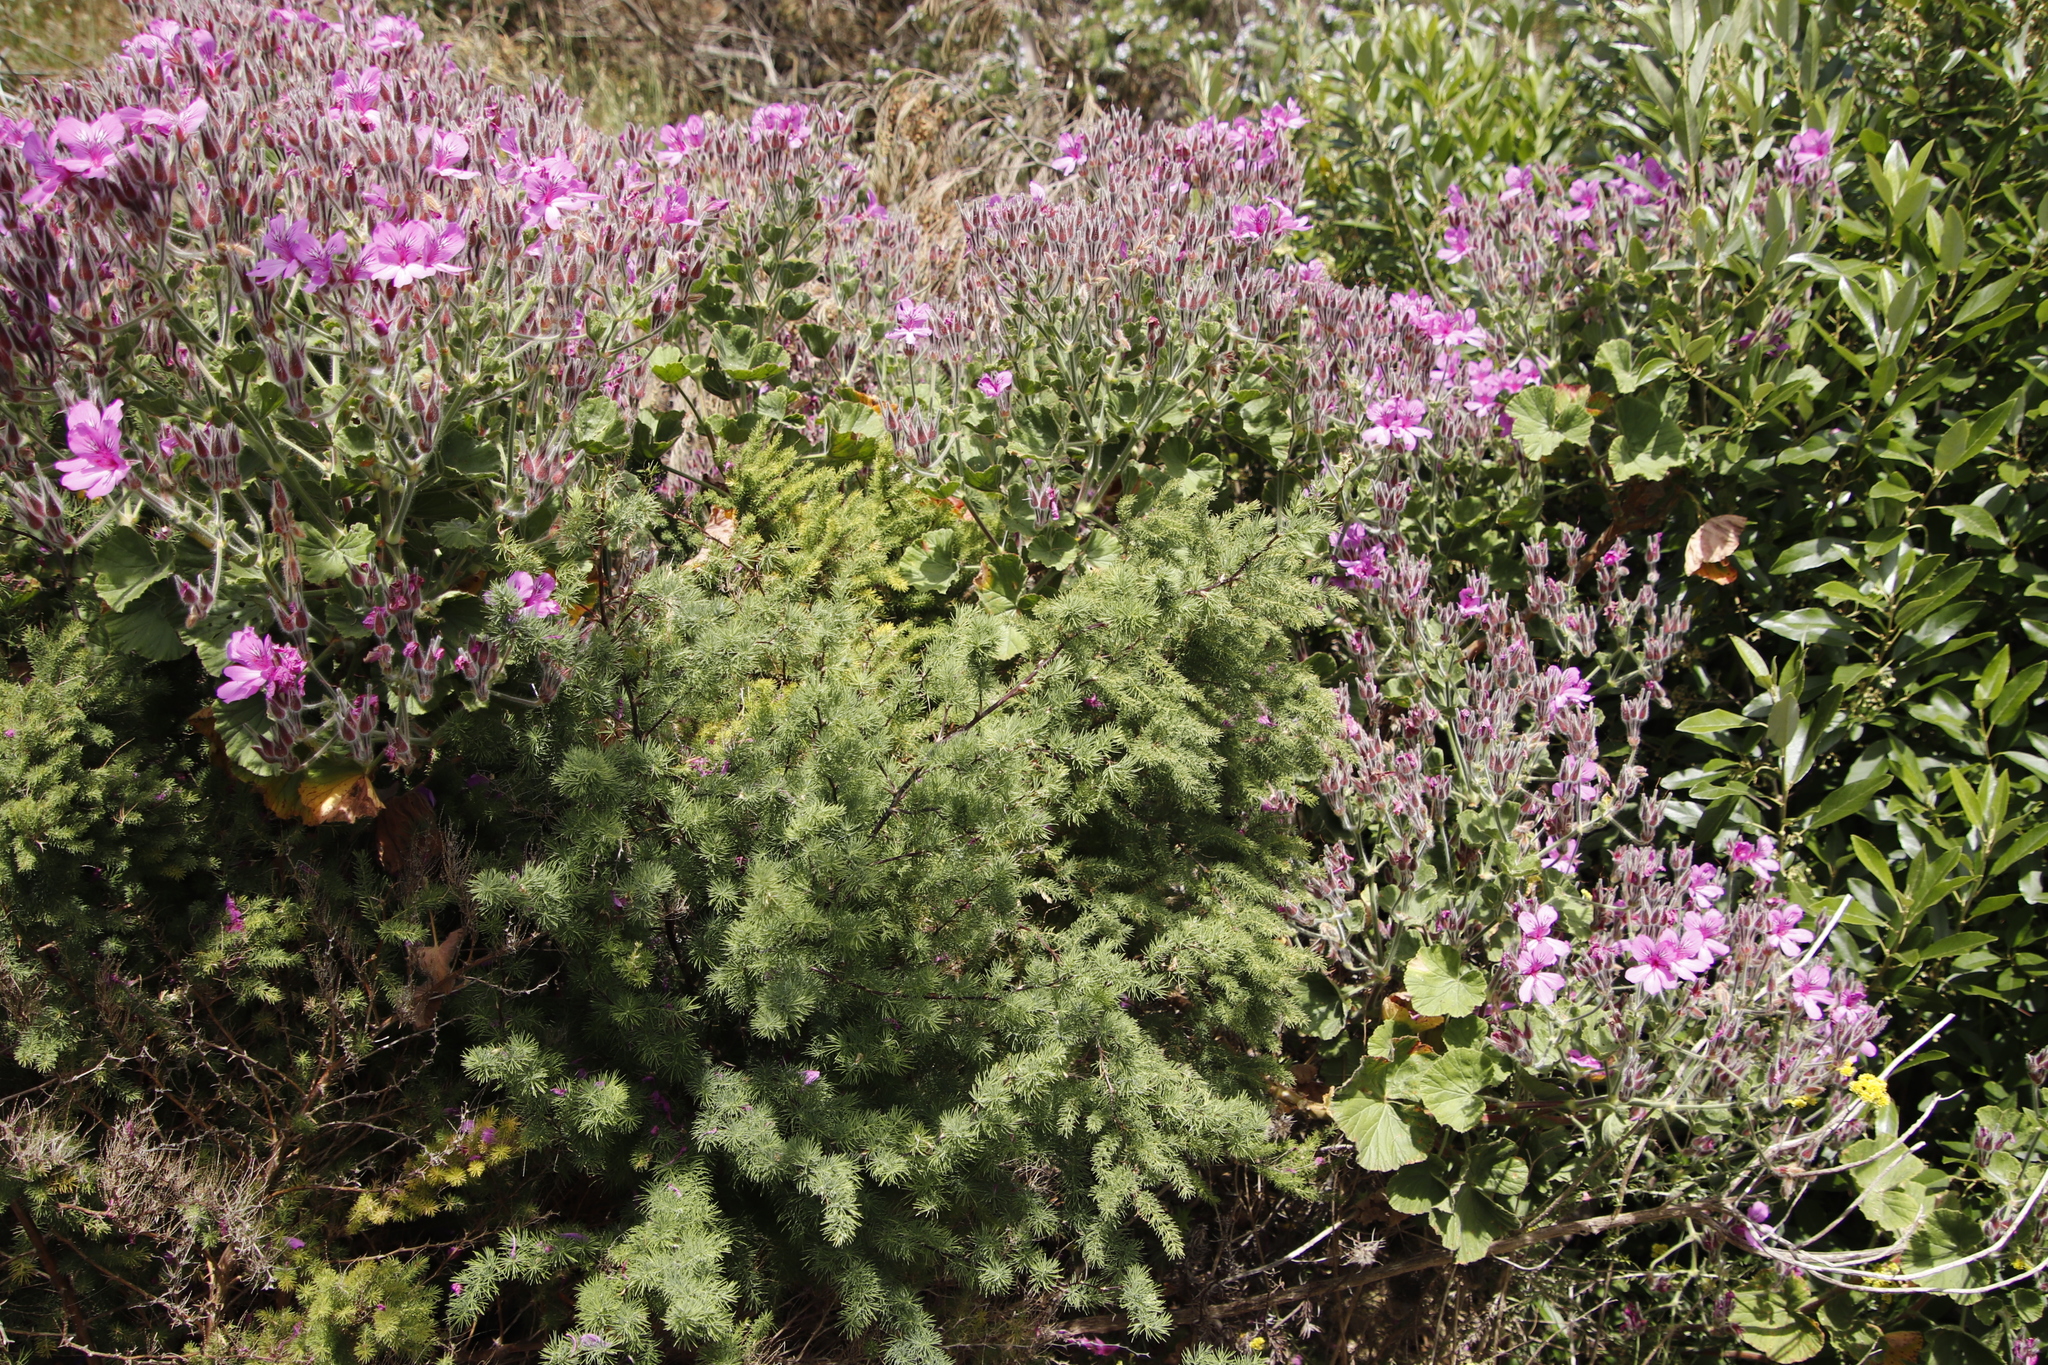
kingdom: Plantae
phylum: Tracheophyta
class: Magnoliopsida
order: Geraniales
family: Geraniaceae
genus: Pelargonium
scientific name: Pelargonium cucullatum
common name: Tree pelargonium
